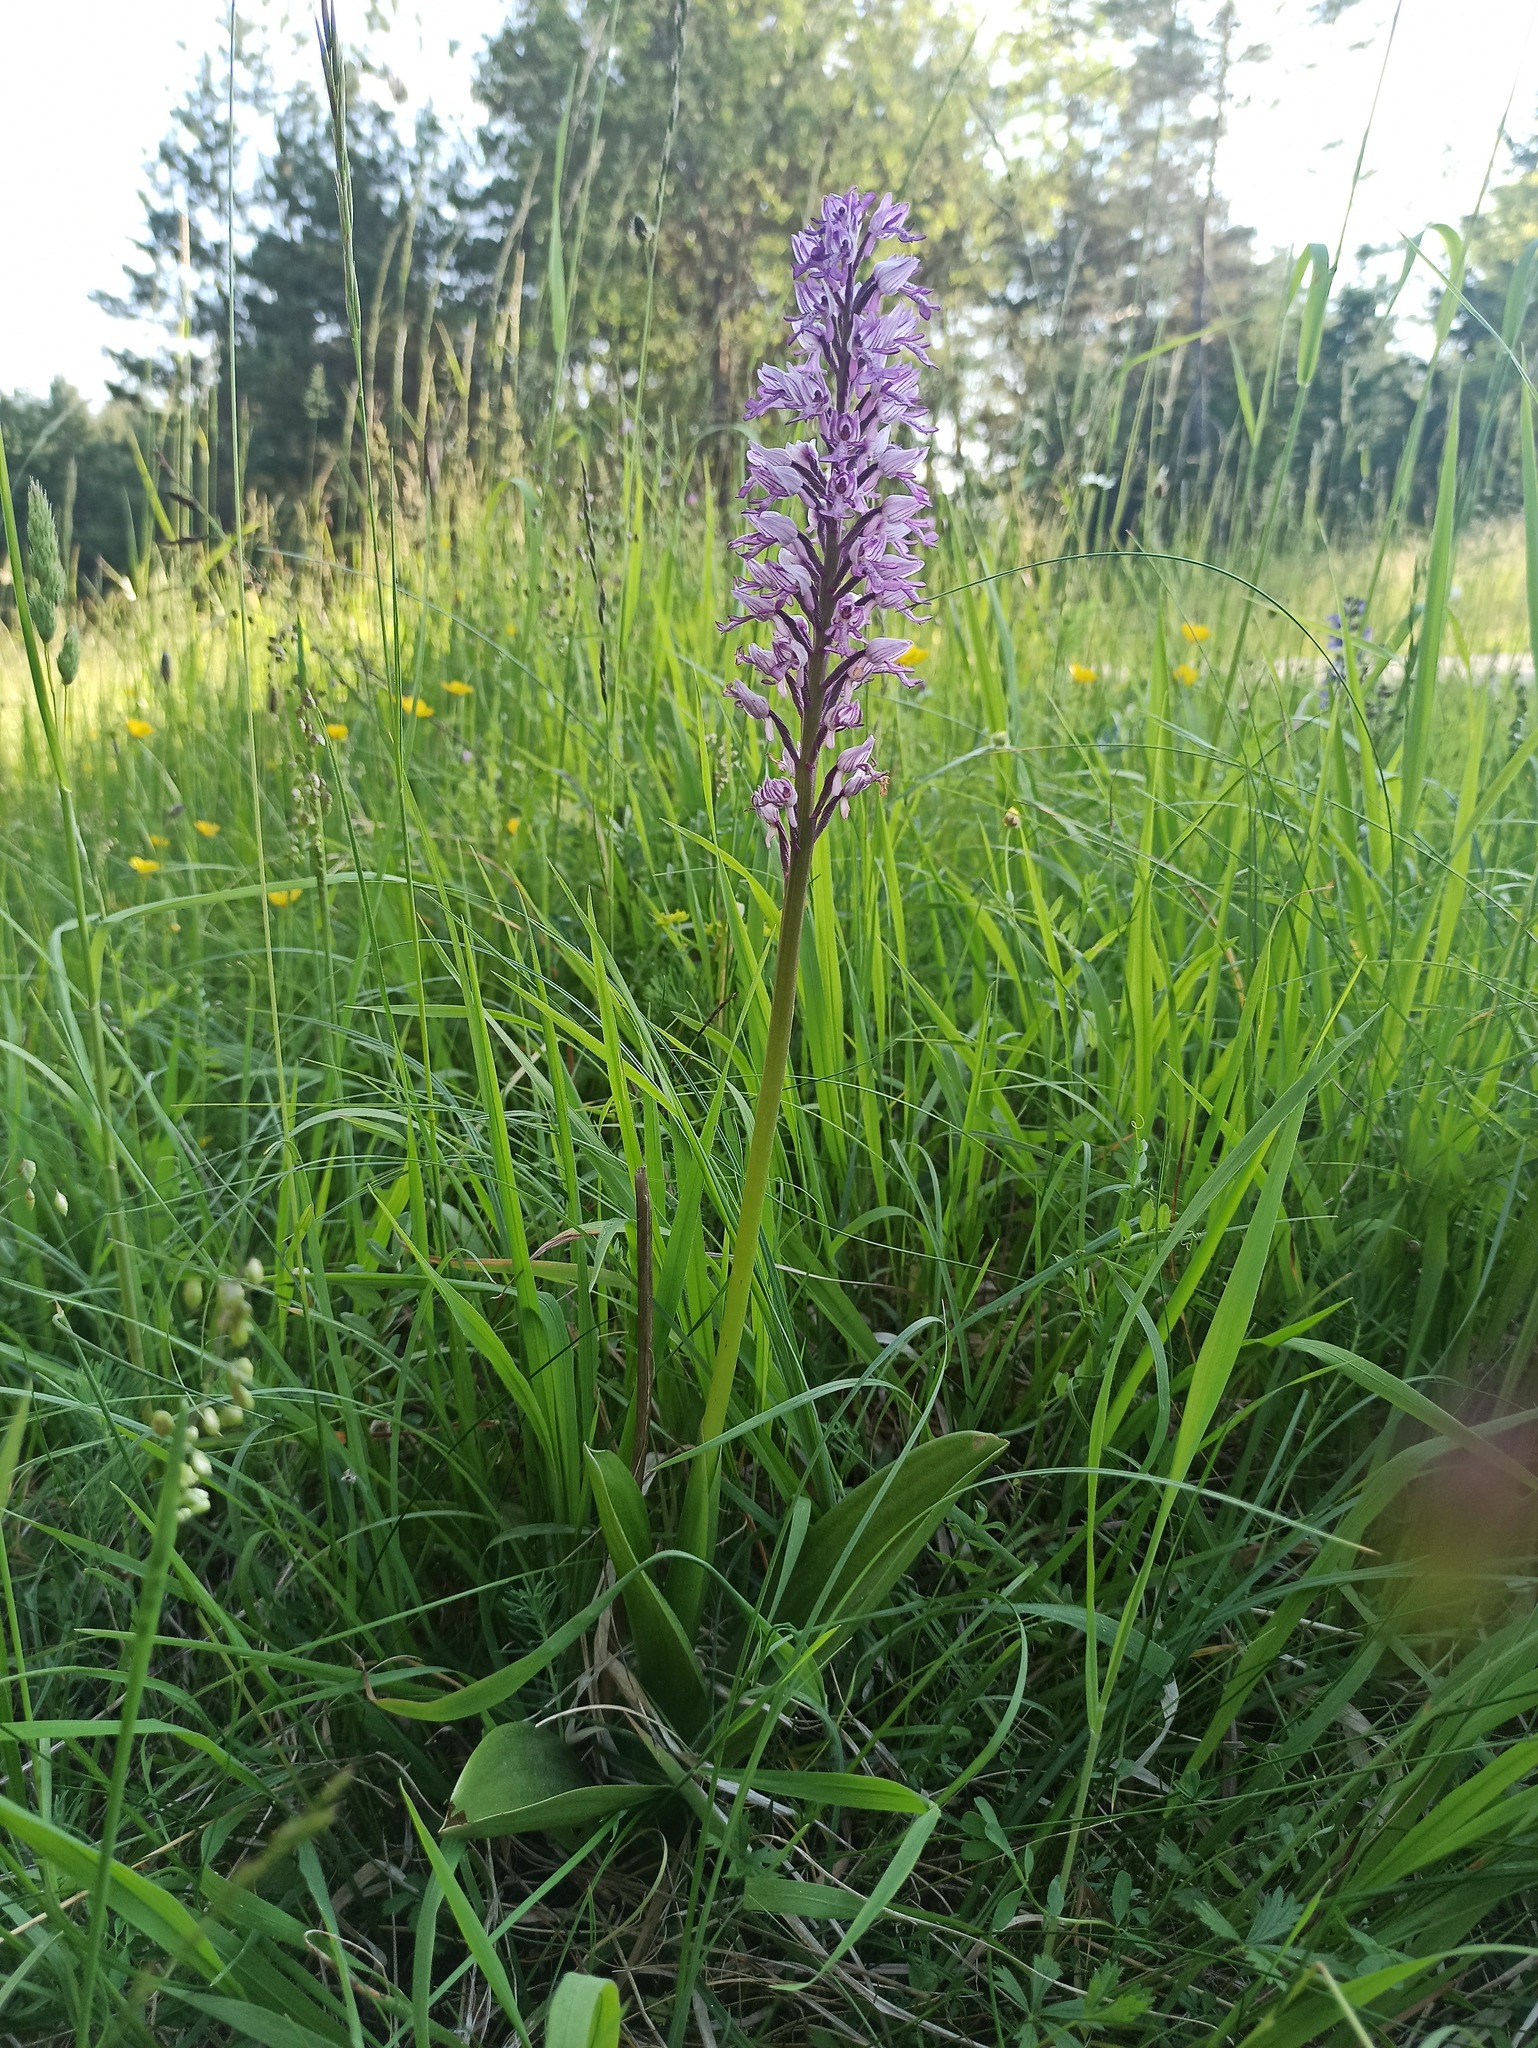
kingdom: Plantae
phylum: Tracheophyta
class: Liliopsida
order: Asparagales
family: Orchidaceae
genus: Orchis
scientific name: Orchis militaris
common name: Military orchid
